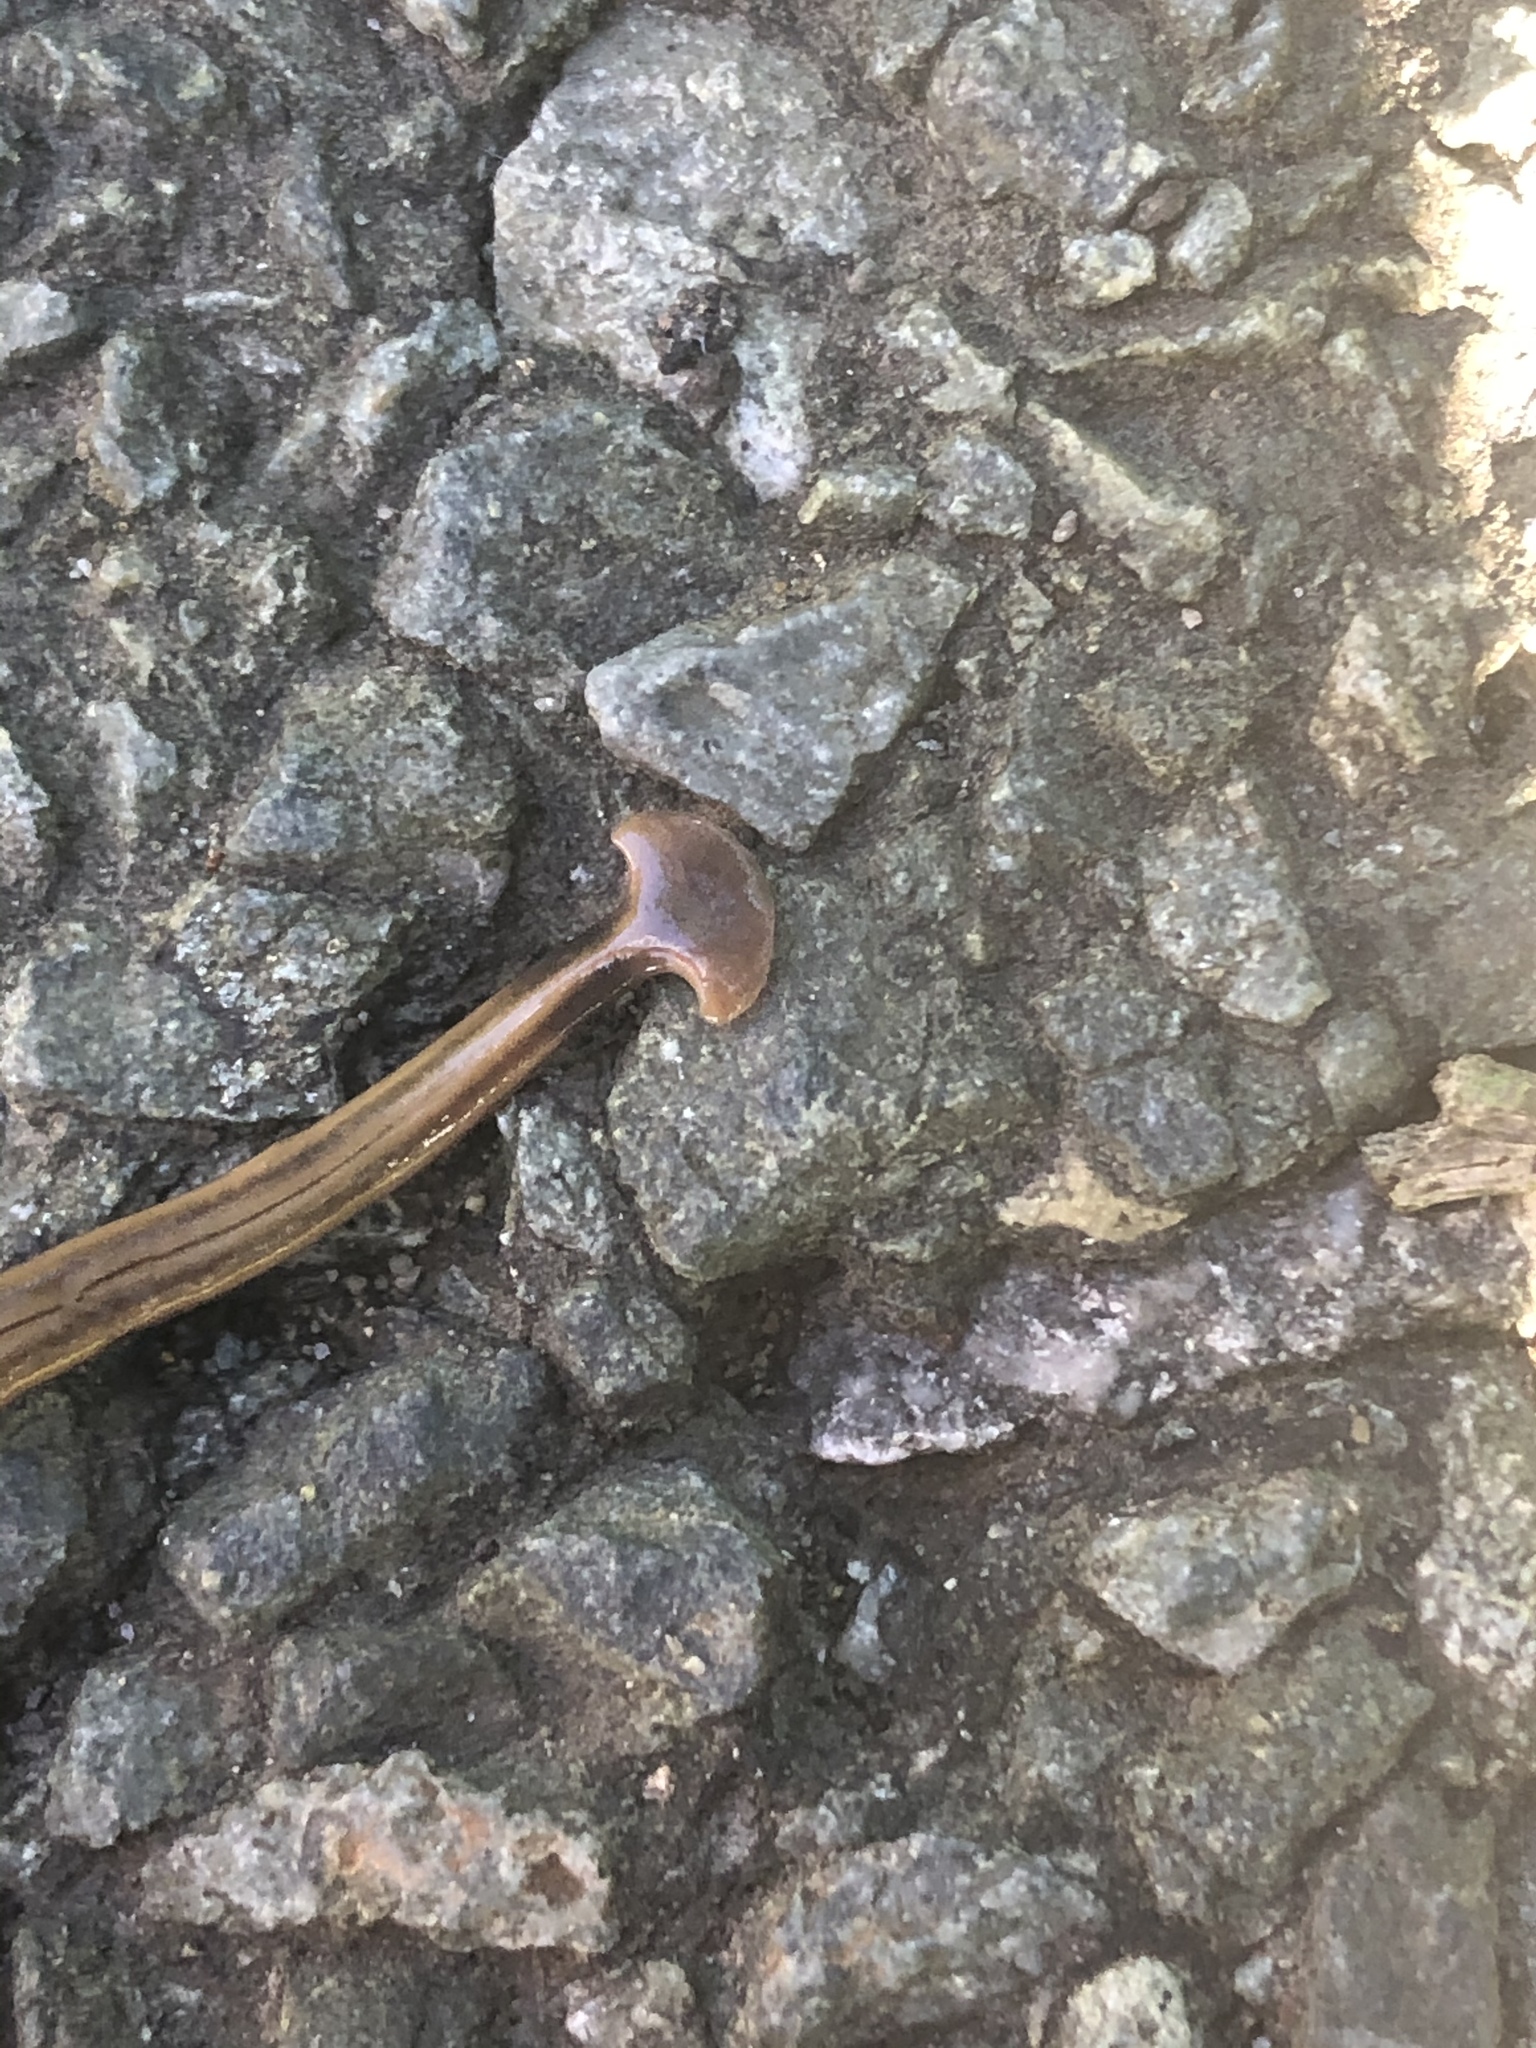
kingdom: Animalia
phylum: Platyhelminthes
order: Tricladida
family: Geoplanidae
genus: Bipalium
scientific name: Bipalium kewense
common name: Hammerhead flatworm
